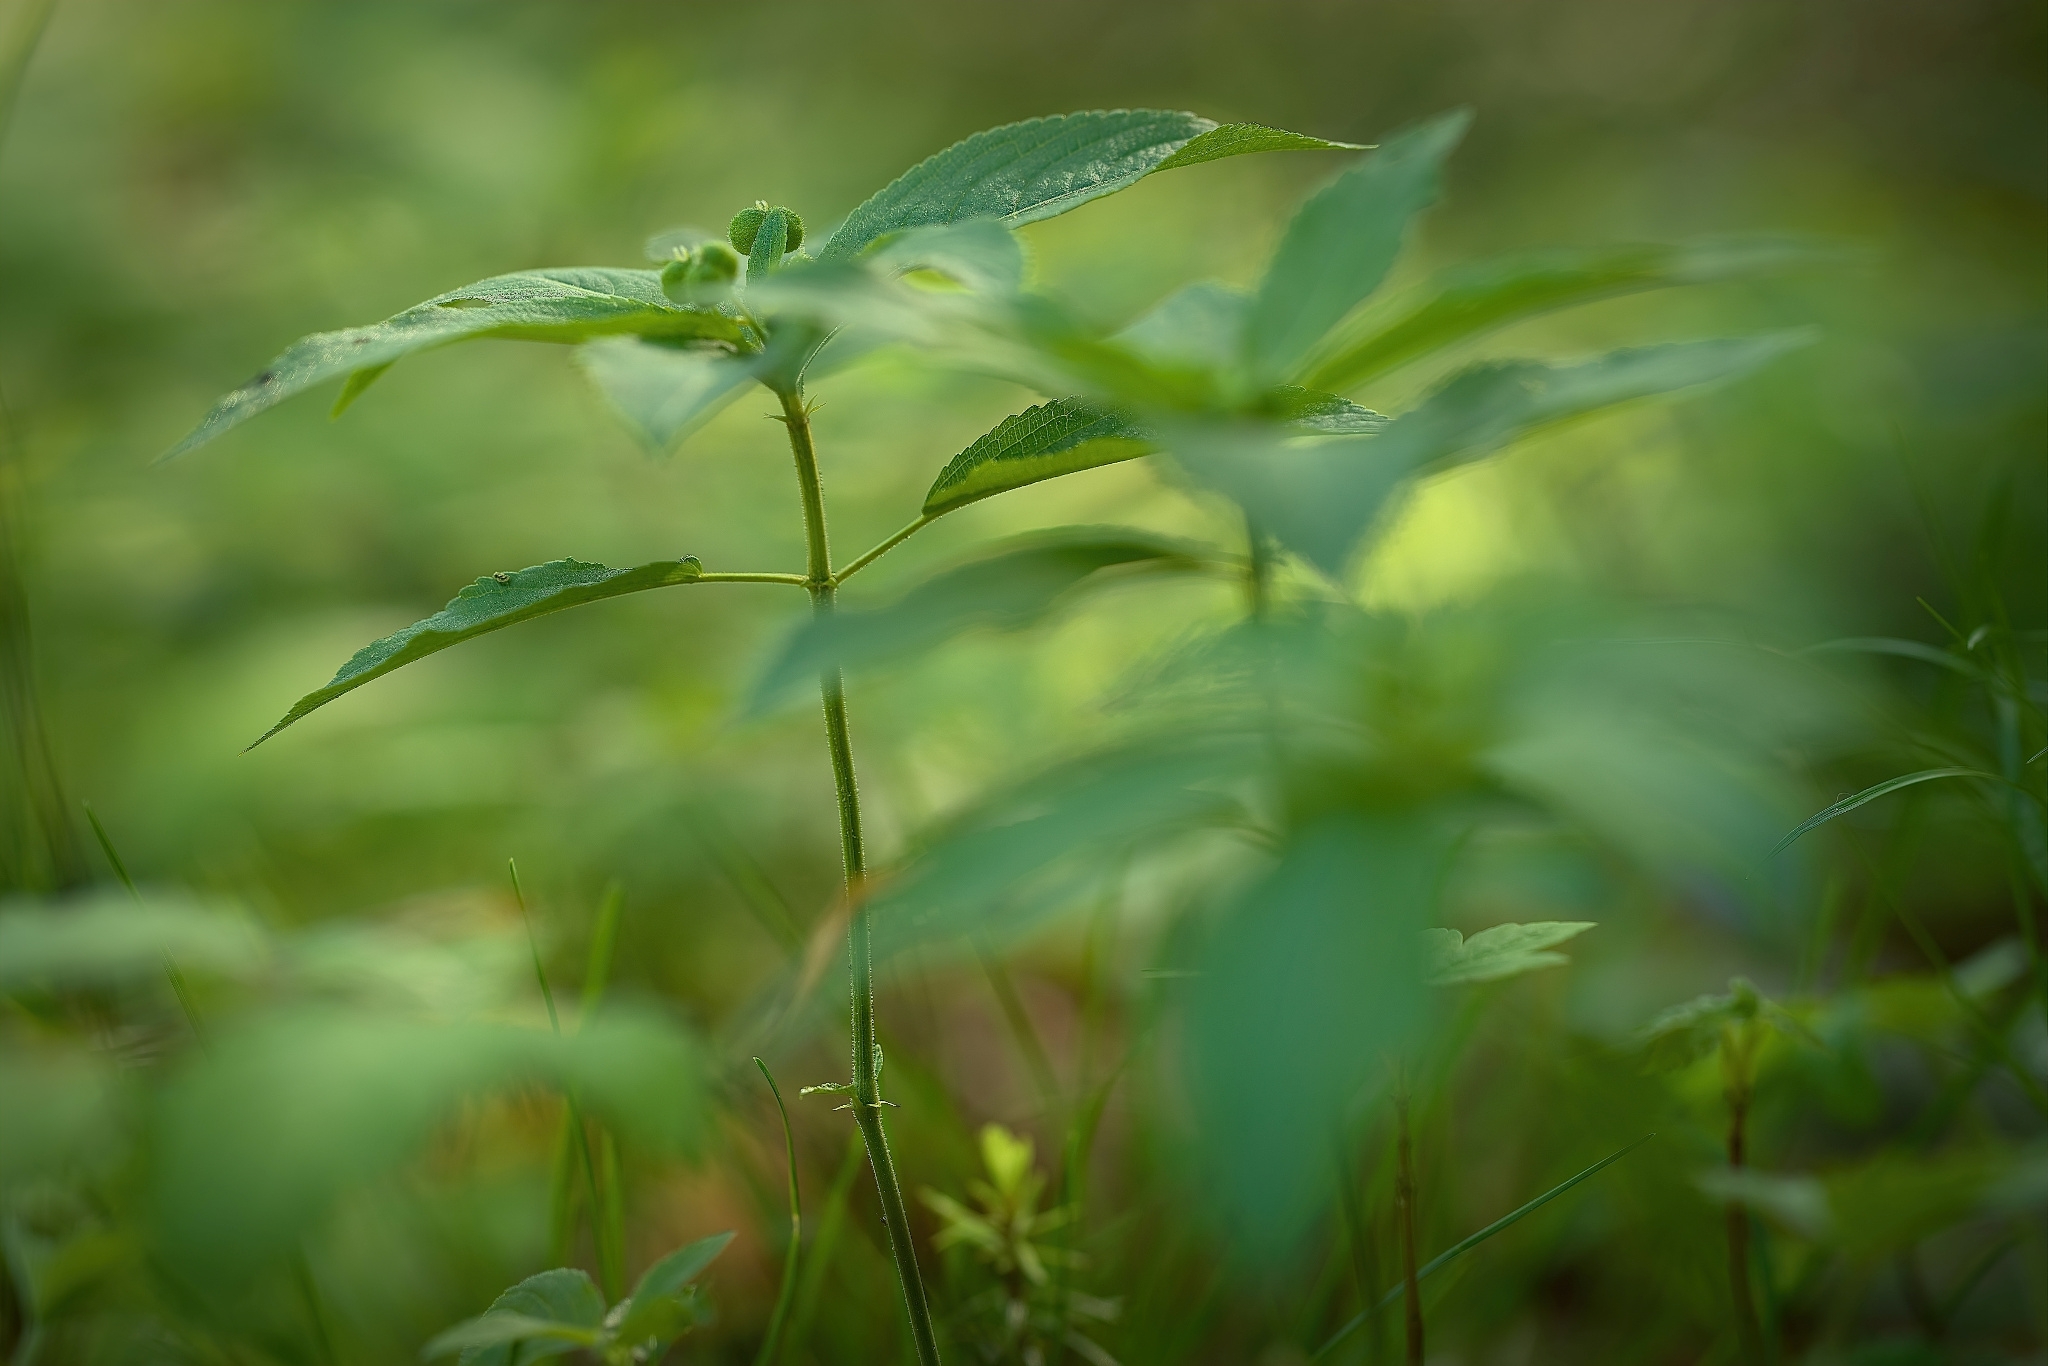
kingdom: Plantae
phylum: Tracheophyta
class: Magnoliopsida
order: Malpighiales
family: Euphorbiaceae
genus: Mercurialis
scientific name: Mercurialis perennis
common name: Dog mercury
